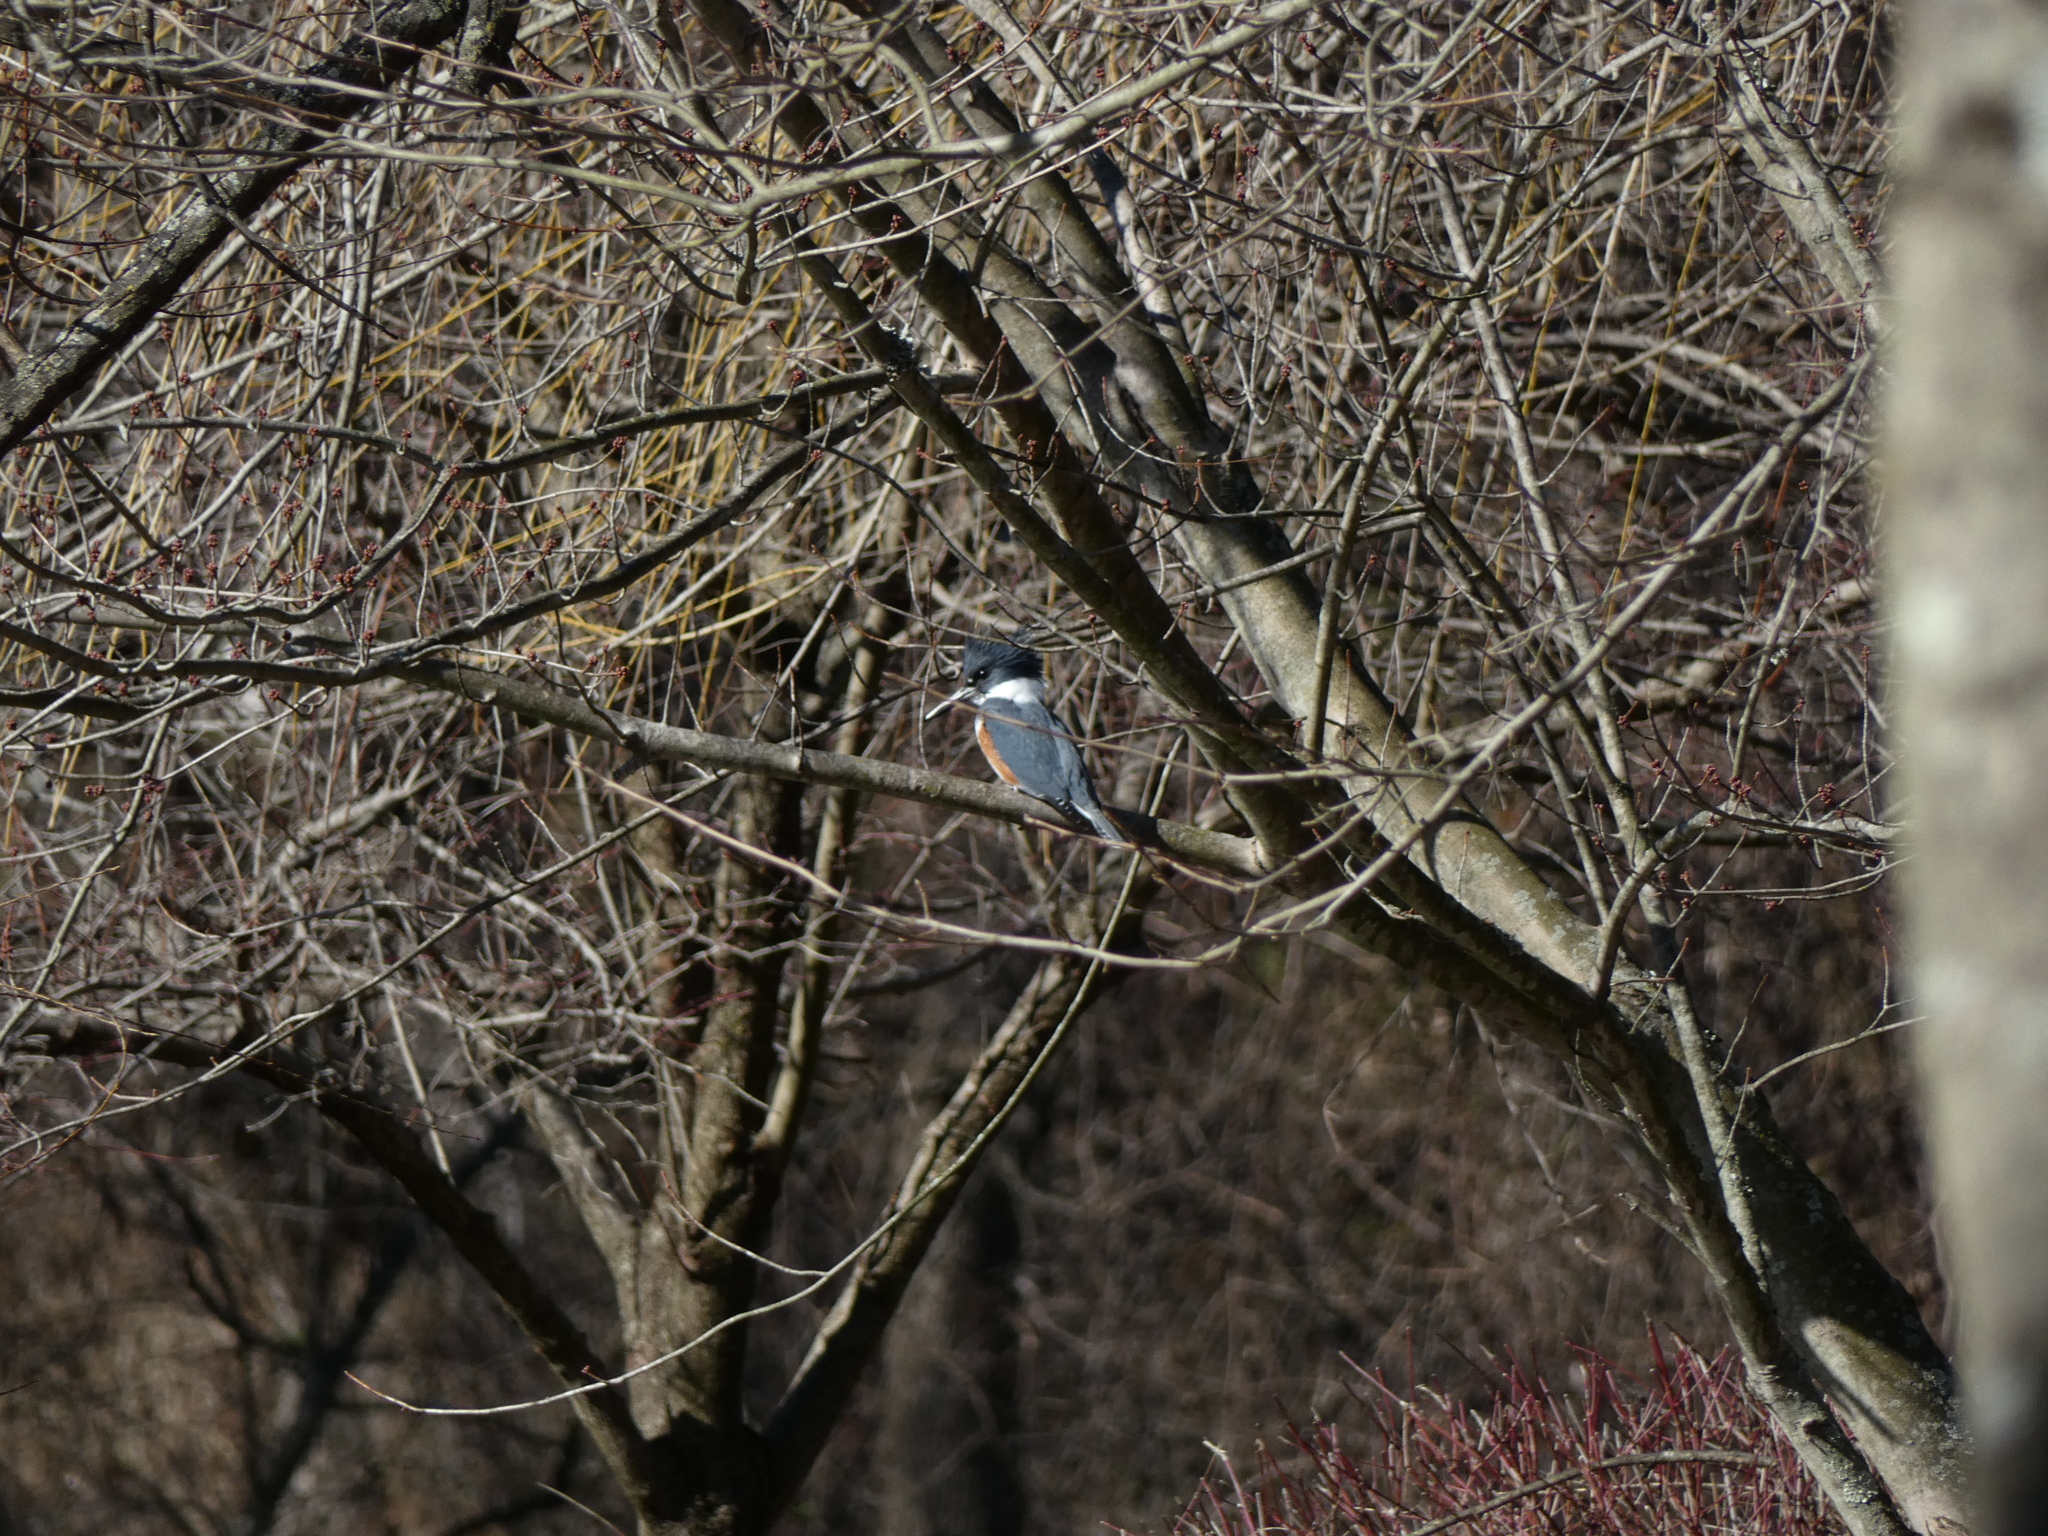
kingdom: Animalia
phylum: Chordata
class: Aves
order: Coraciiformes
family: Alcedinidae
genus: Megaceryle
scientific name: Megaceryle alcyon
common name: Belted kingfisher
